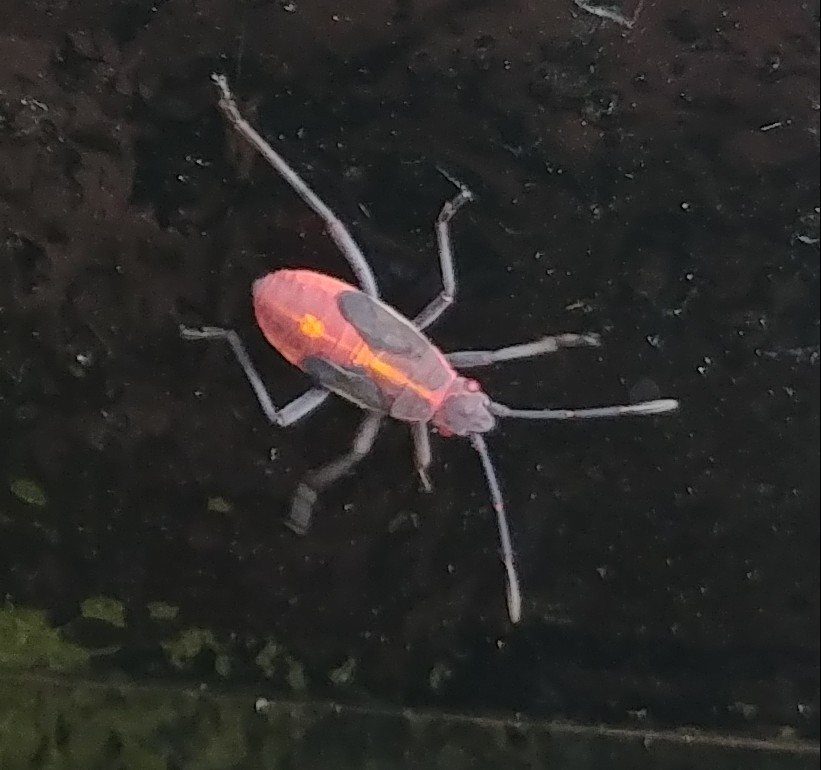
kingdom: Animalia
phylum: Arthropoda
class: Insecta
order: Hemiptera
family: Rhopalidae
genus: Boisea
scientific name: Boisea trivittata
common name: Boxelder bug
